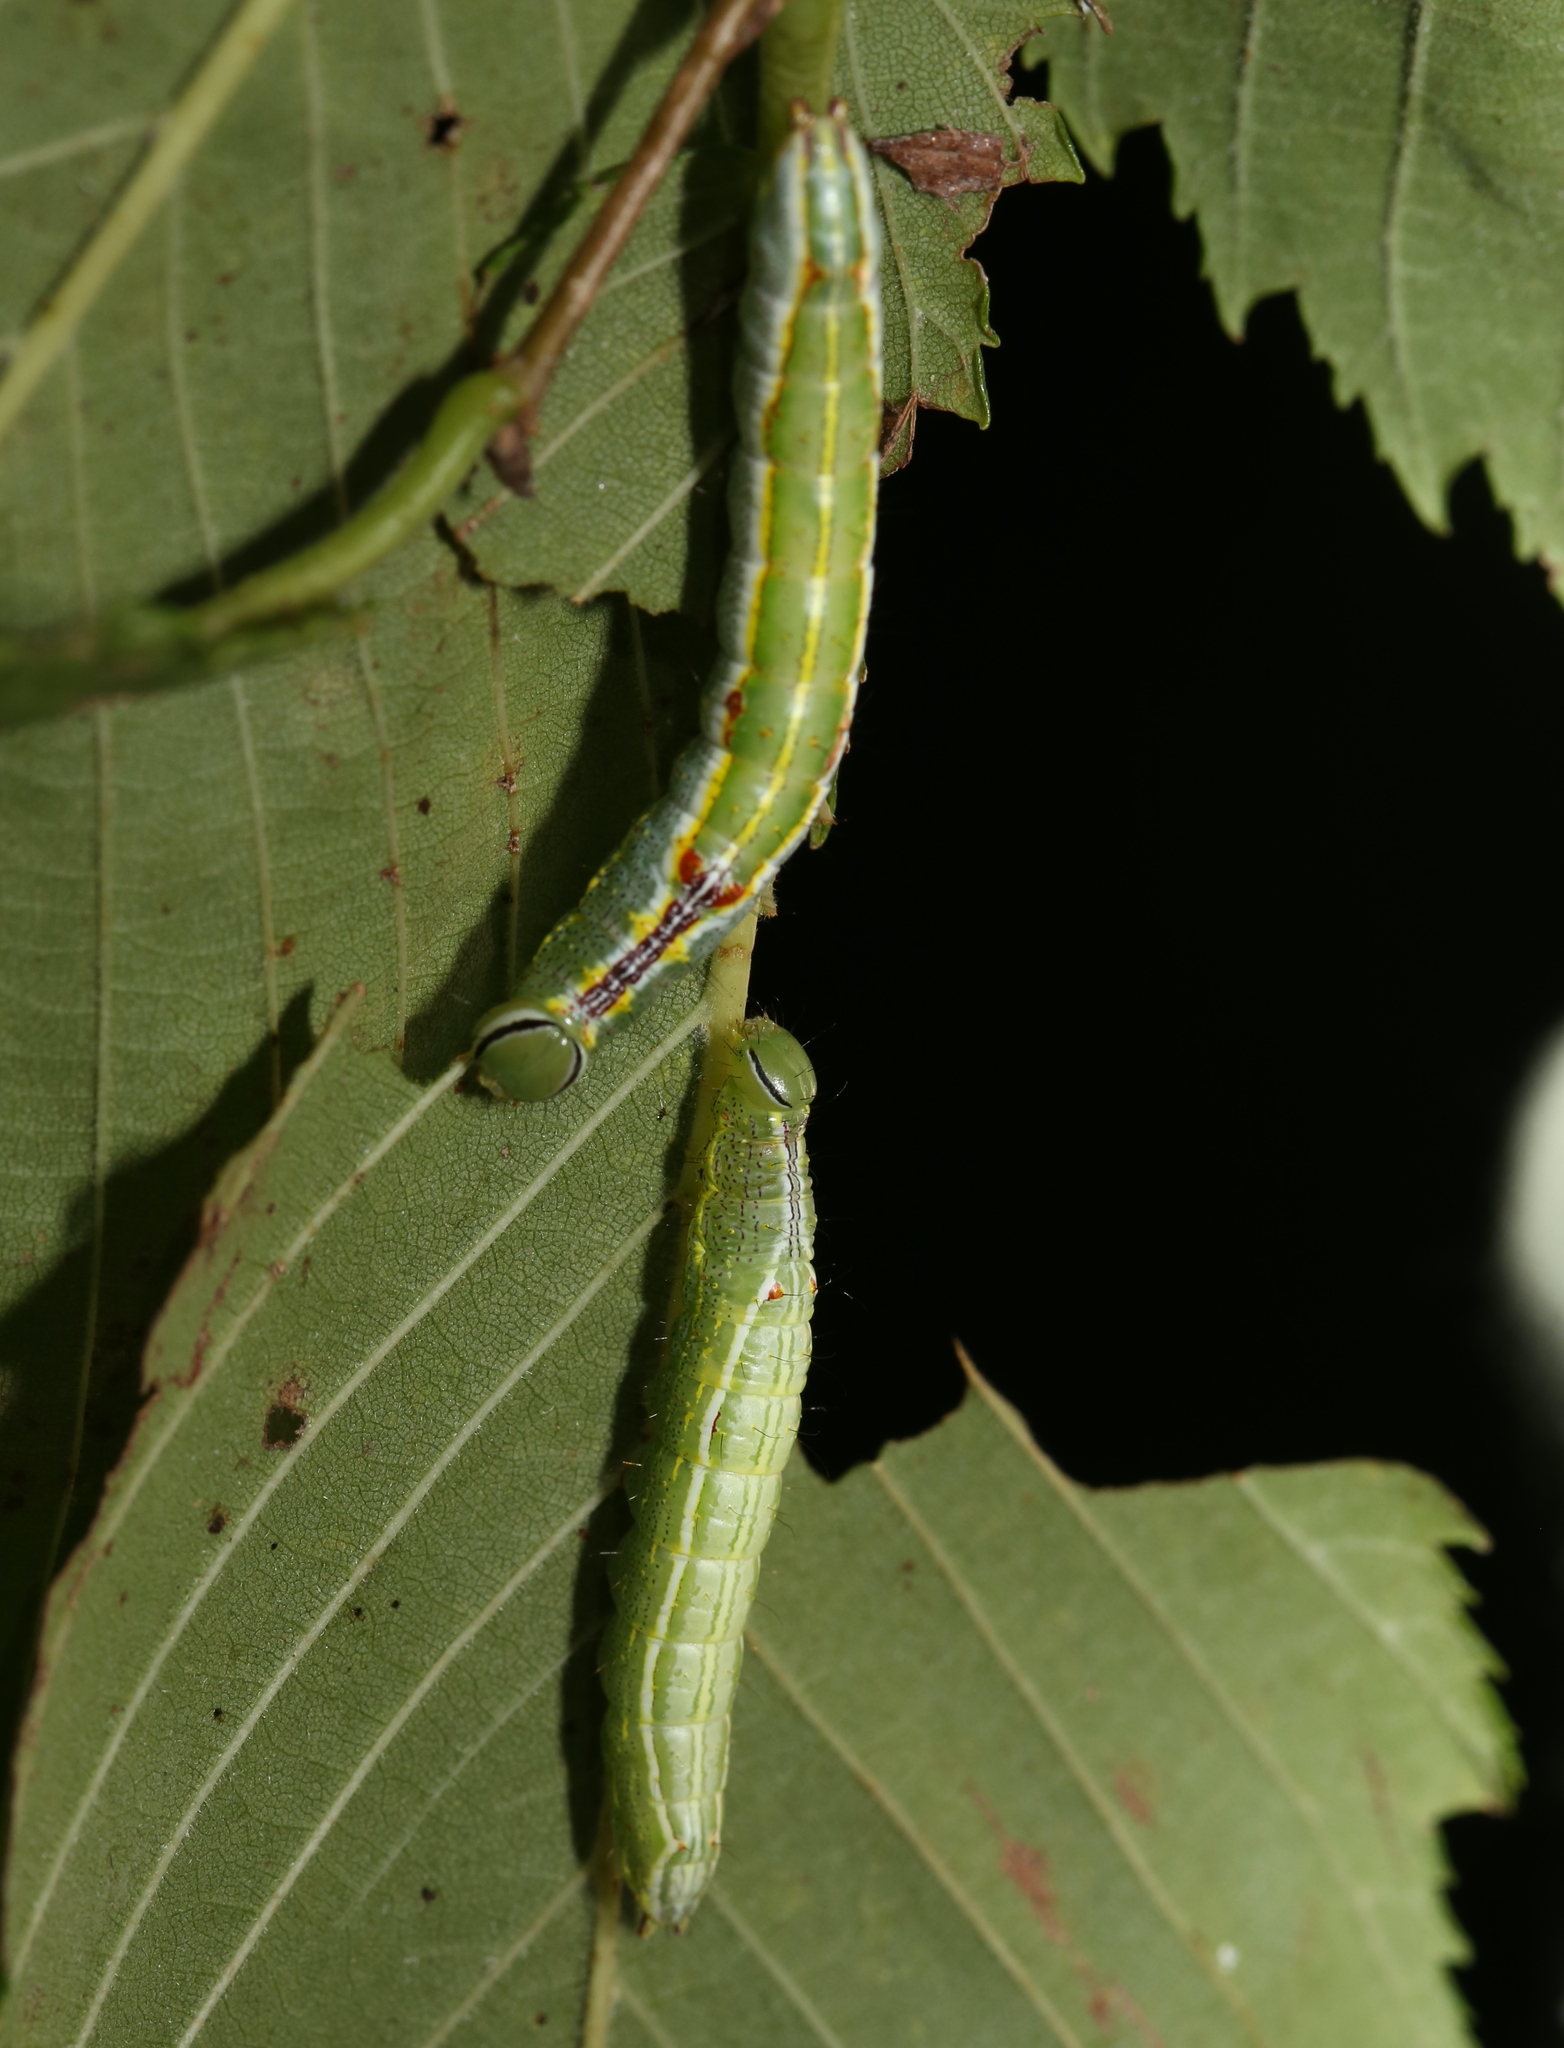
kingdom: Animalia
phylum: Arthropoda
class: Insecta
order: Lepidoptera
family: Notodontidae
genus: Lochmaeus
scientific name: Lochmaeus bilineata
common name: Double-lined prominent
